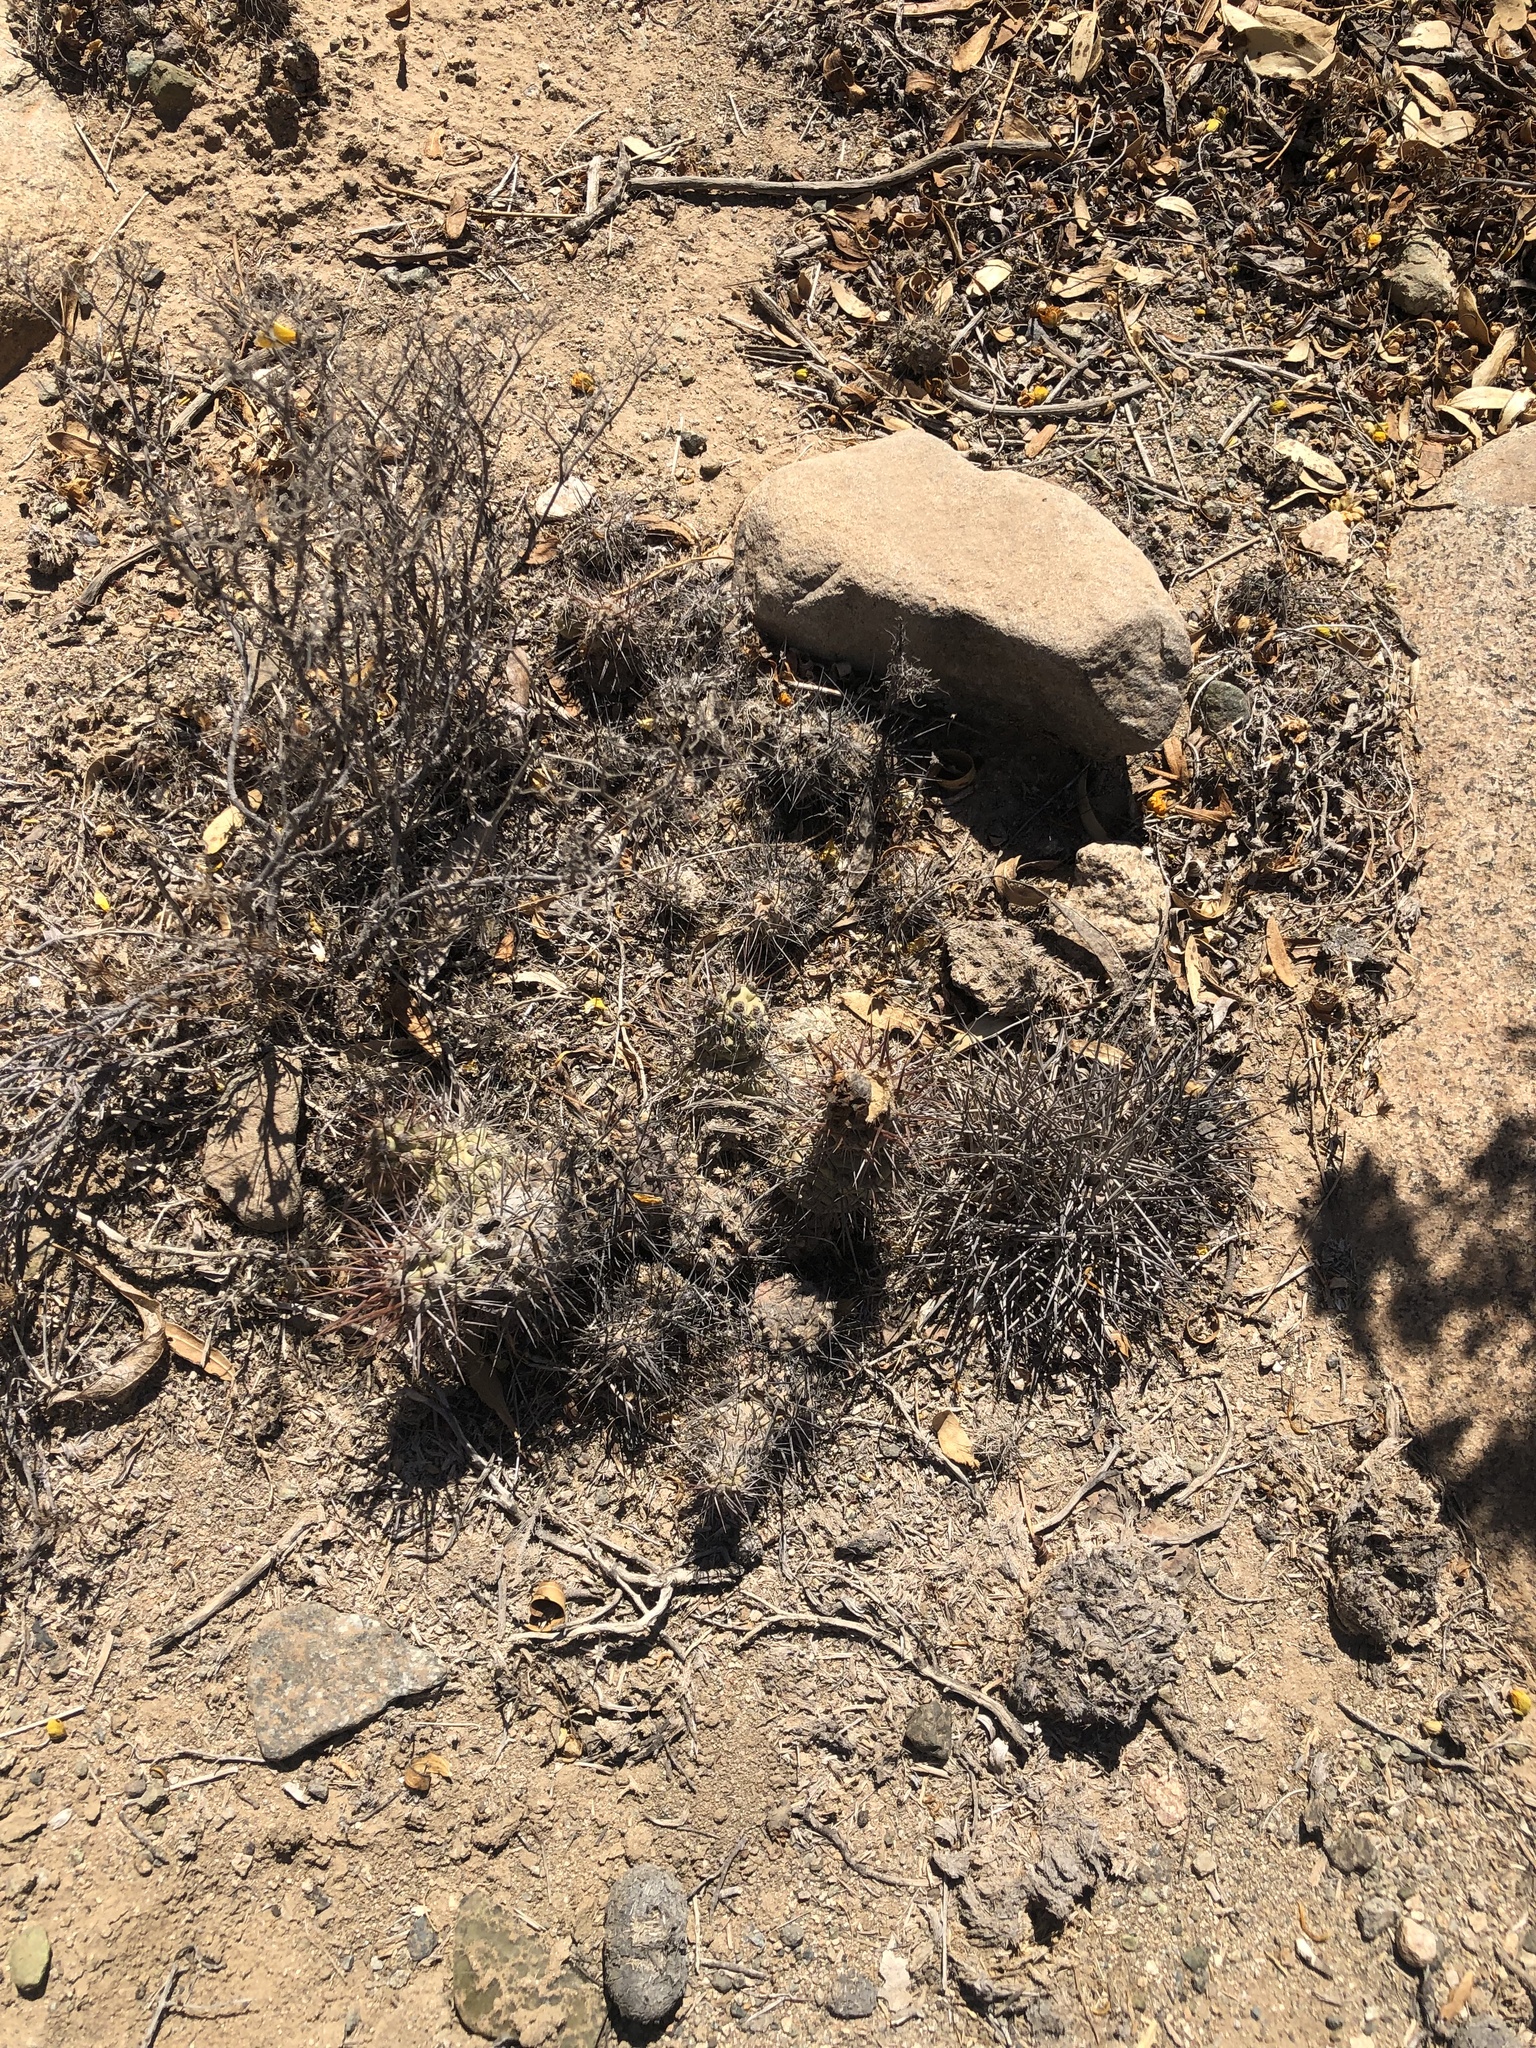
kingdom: Plantae
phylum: Tracheophyta
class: Magnoliopsida
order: Caryophyllales
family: Cactaceae
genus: Cumulopuntia
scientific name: Cumulopuntia leucophaea
